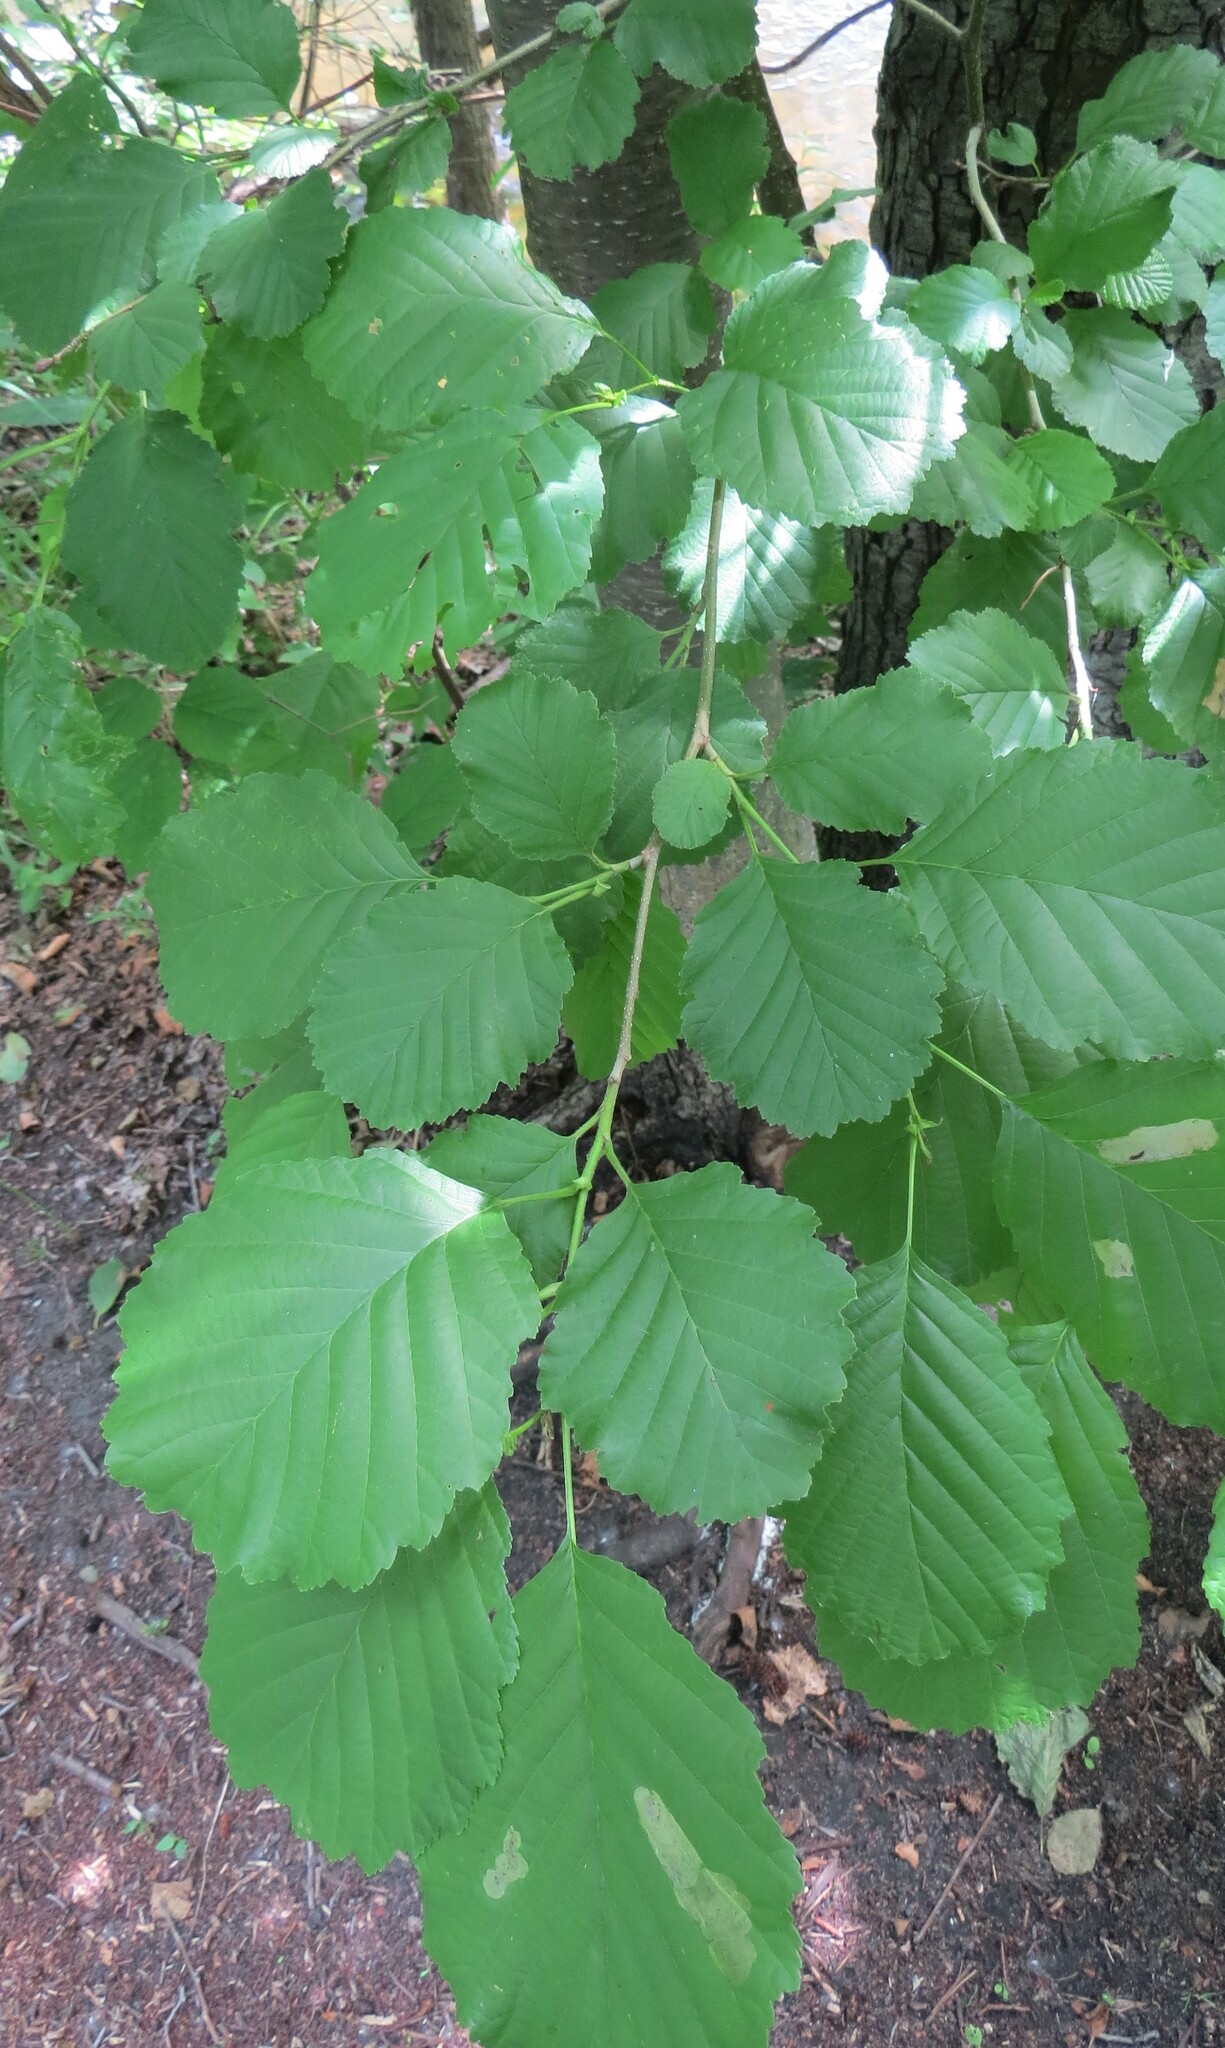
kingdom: Animalia
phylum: Arthropoda
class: Insecta
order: Hymenoptera
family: Tenthredinidae
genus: Fenusa
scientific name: Fenusa dohrnii
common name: European alder leafminer
